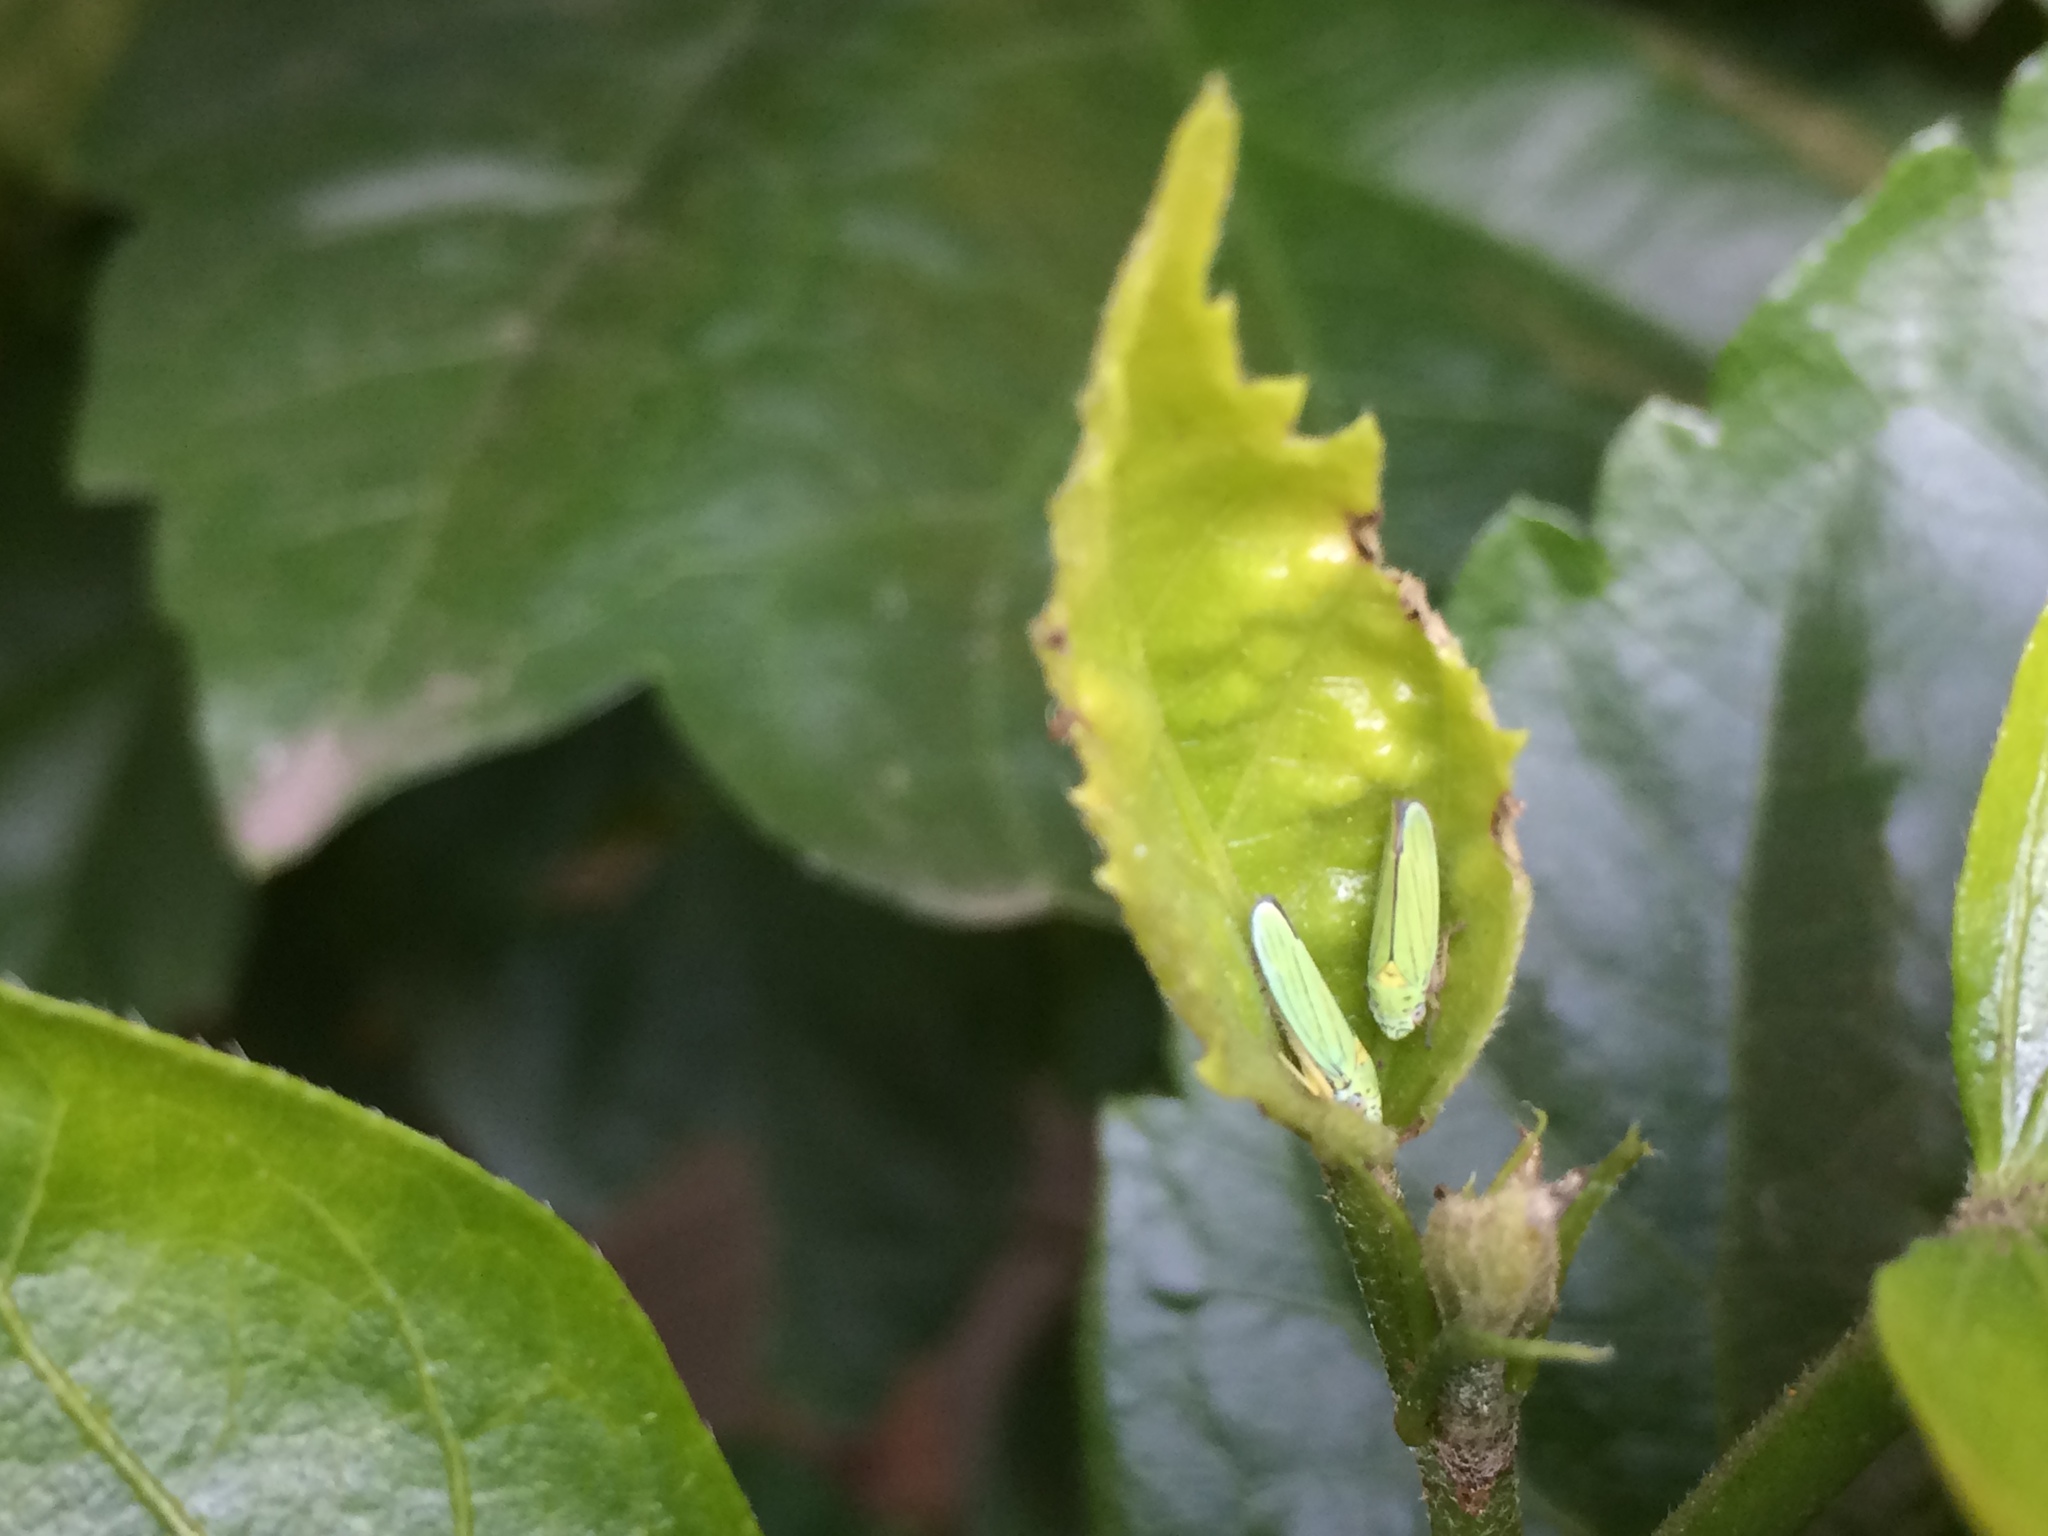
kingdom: Animalia
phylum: Arthropoda
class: Insecta
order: Hemiptera
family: Cicadellidae
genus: Graphocephala
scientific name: Graphocephala atropunctata
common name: Blue-green sharpshooter
